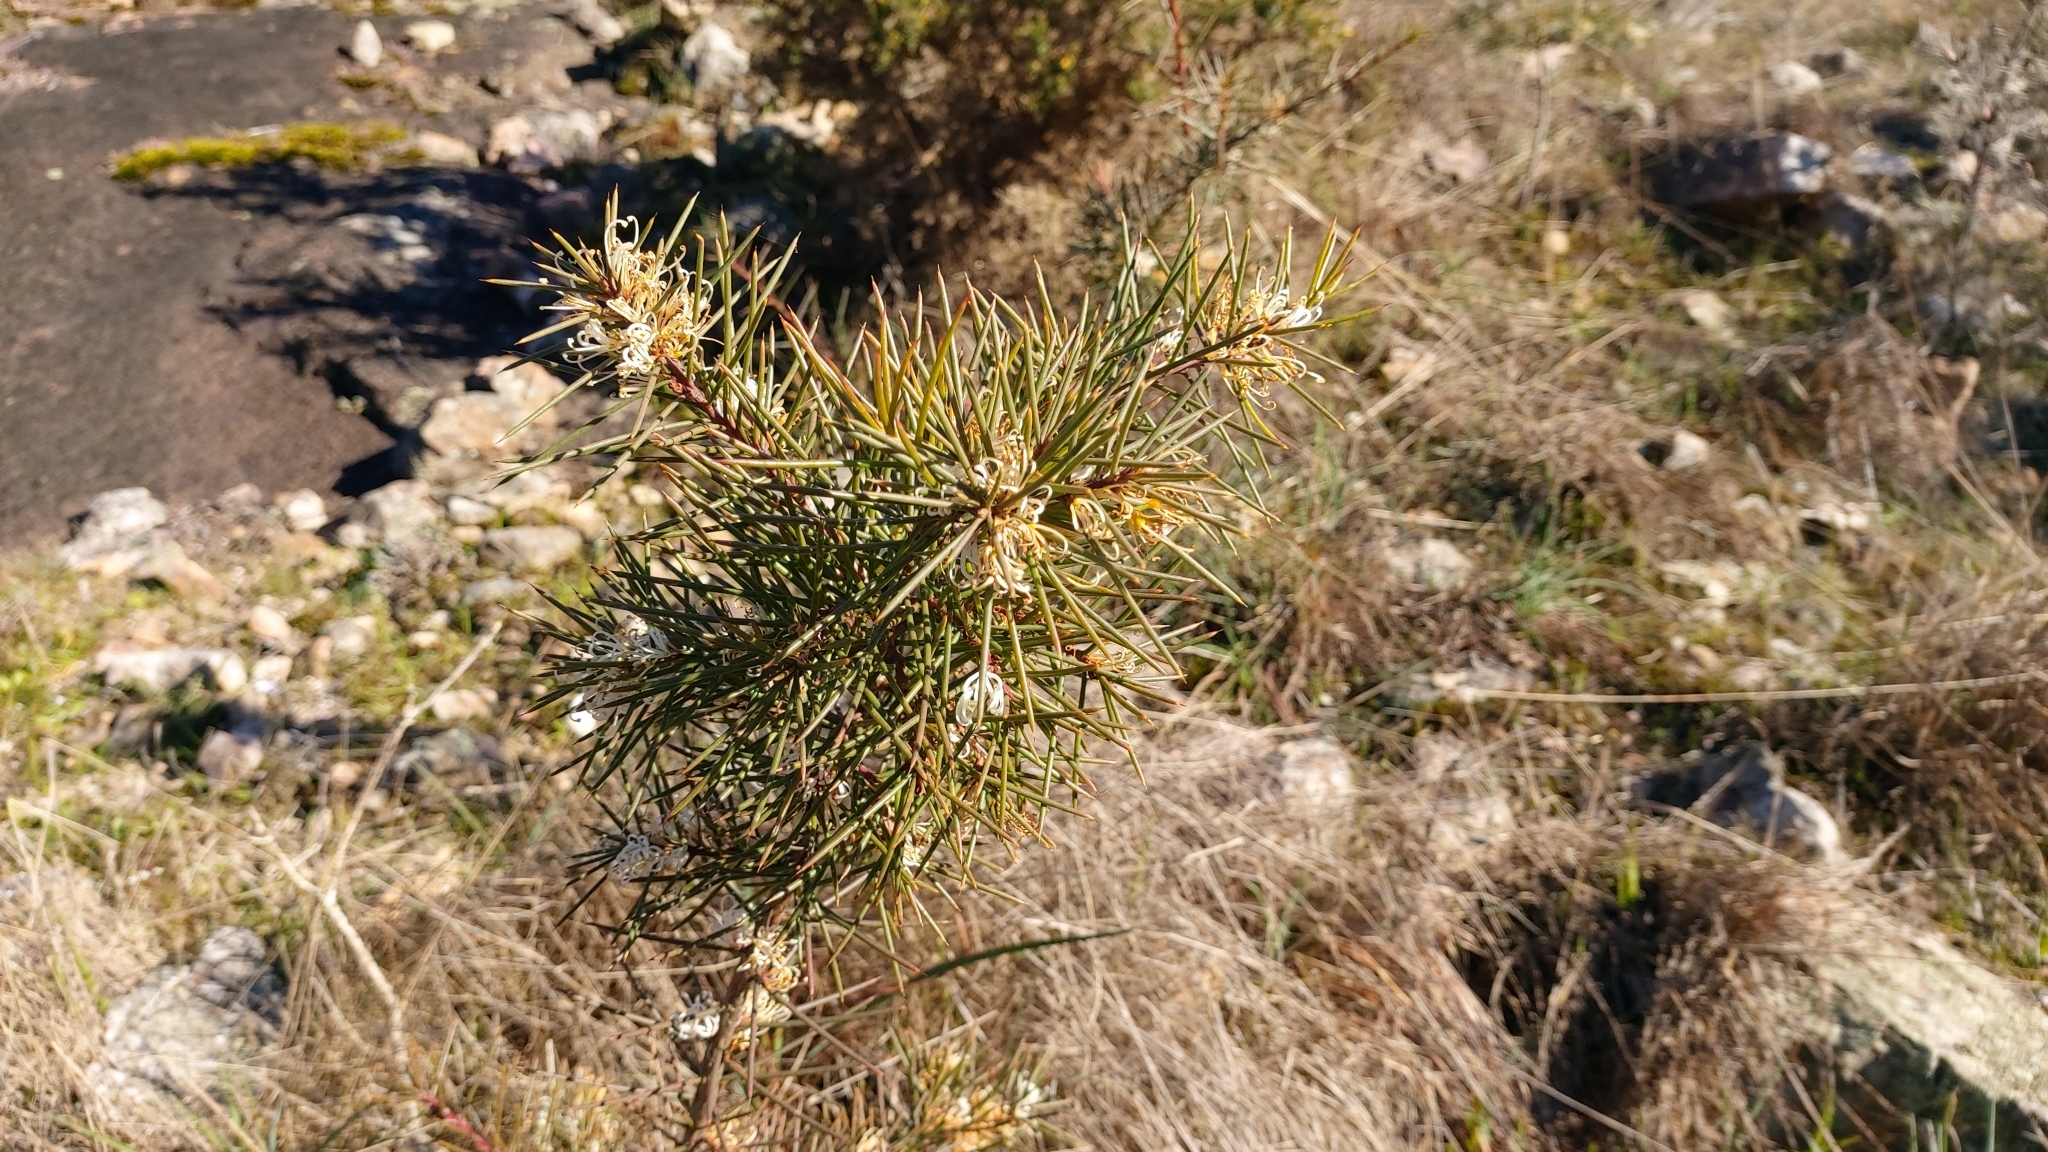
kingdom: Plantae
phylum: Tracheophyta
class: Magnoliopsida
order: Proteales
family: Proteaceae
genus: Hakea
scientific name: Hakea decurrens
